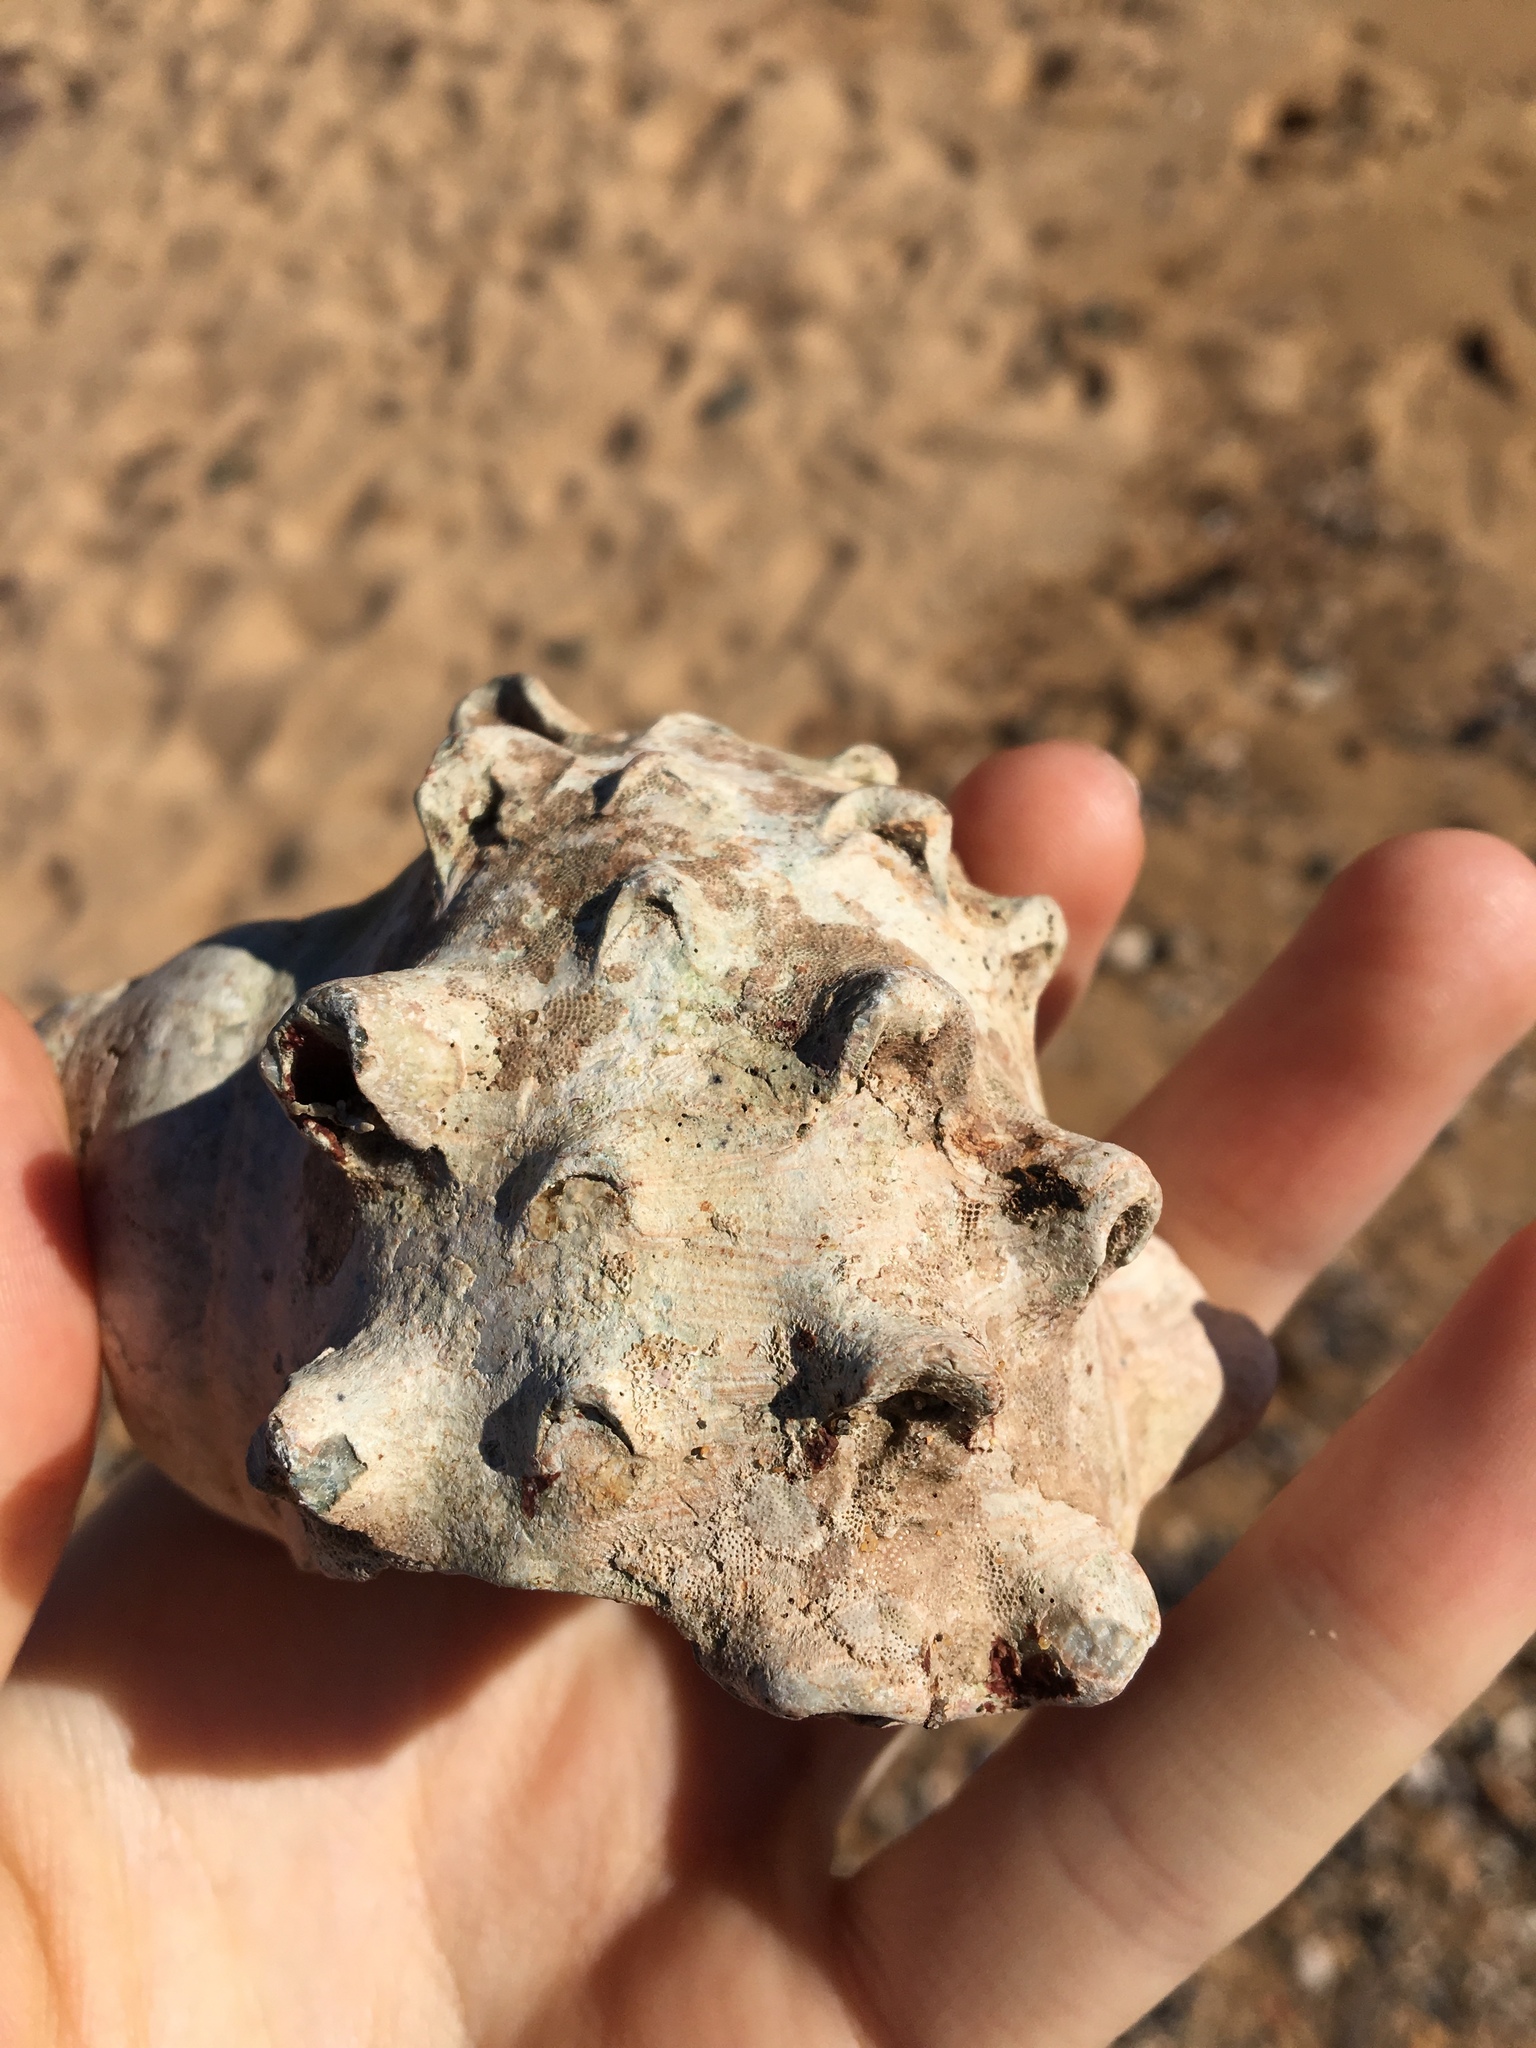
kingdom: Animalia
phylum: Mollusca
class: Gastropoda
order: Trochida
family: Turbinidae
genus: Turbo
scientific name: Turbo militaris
